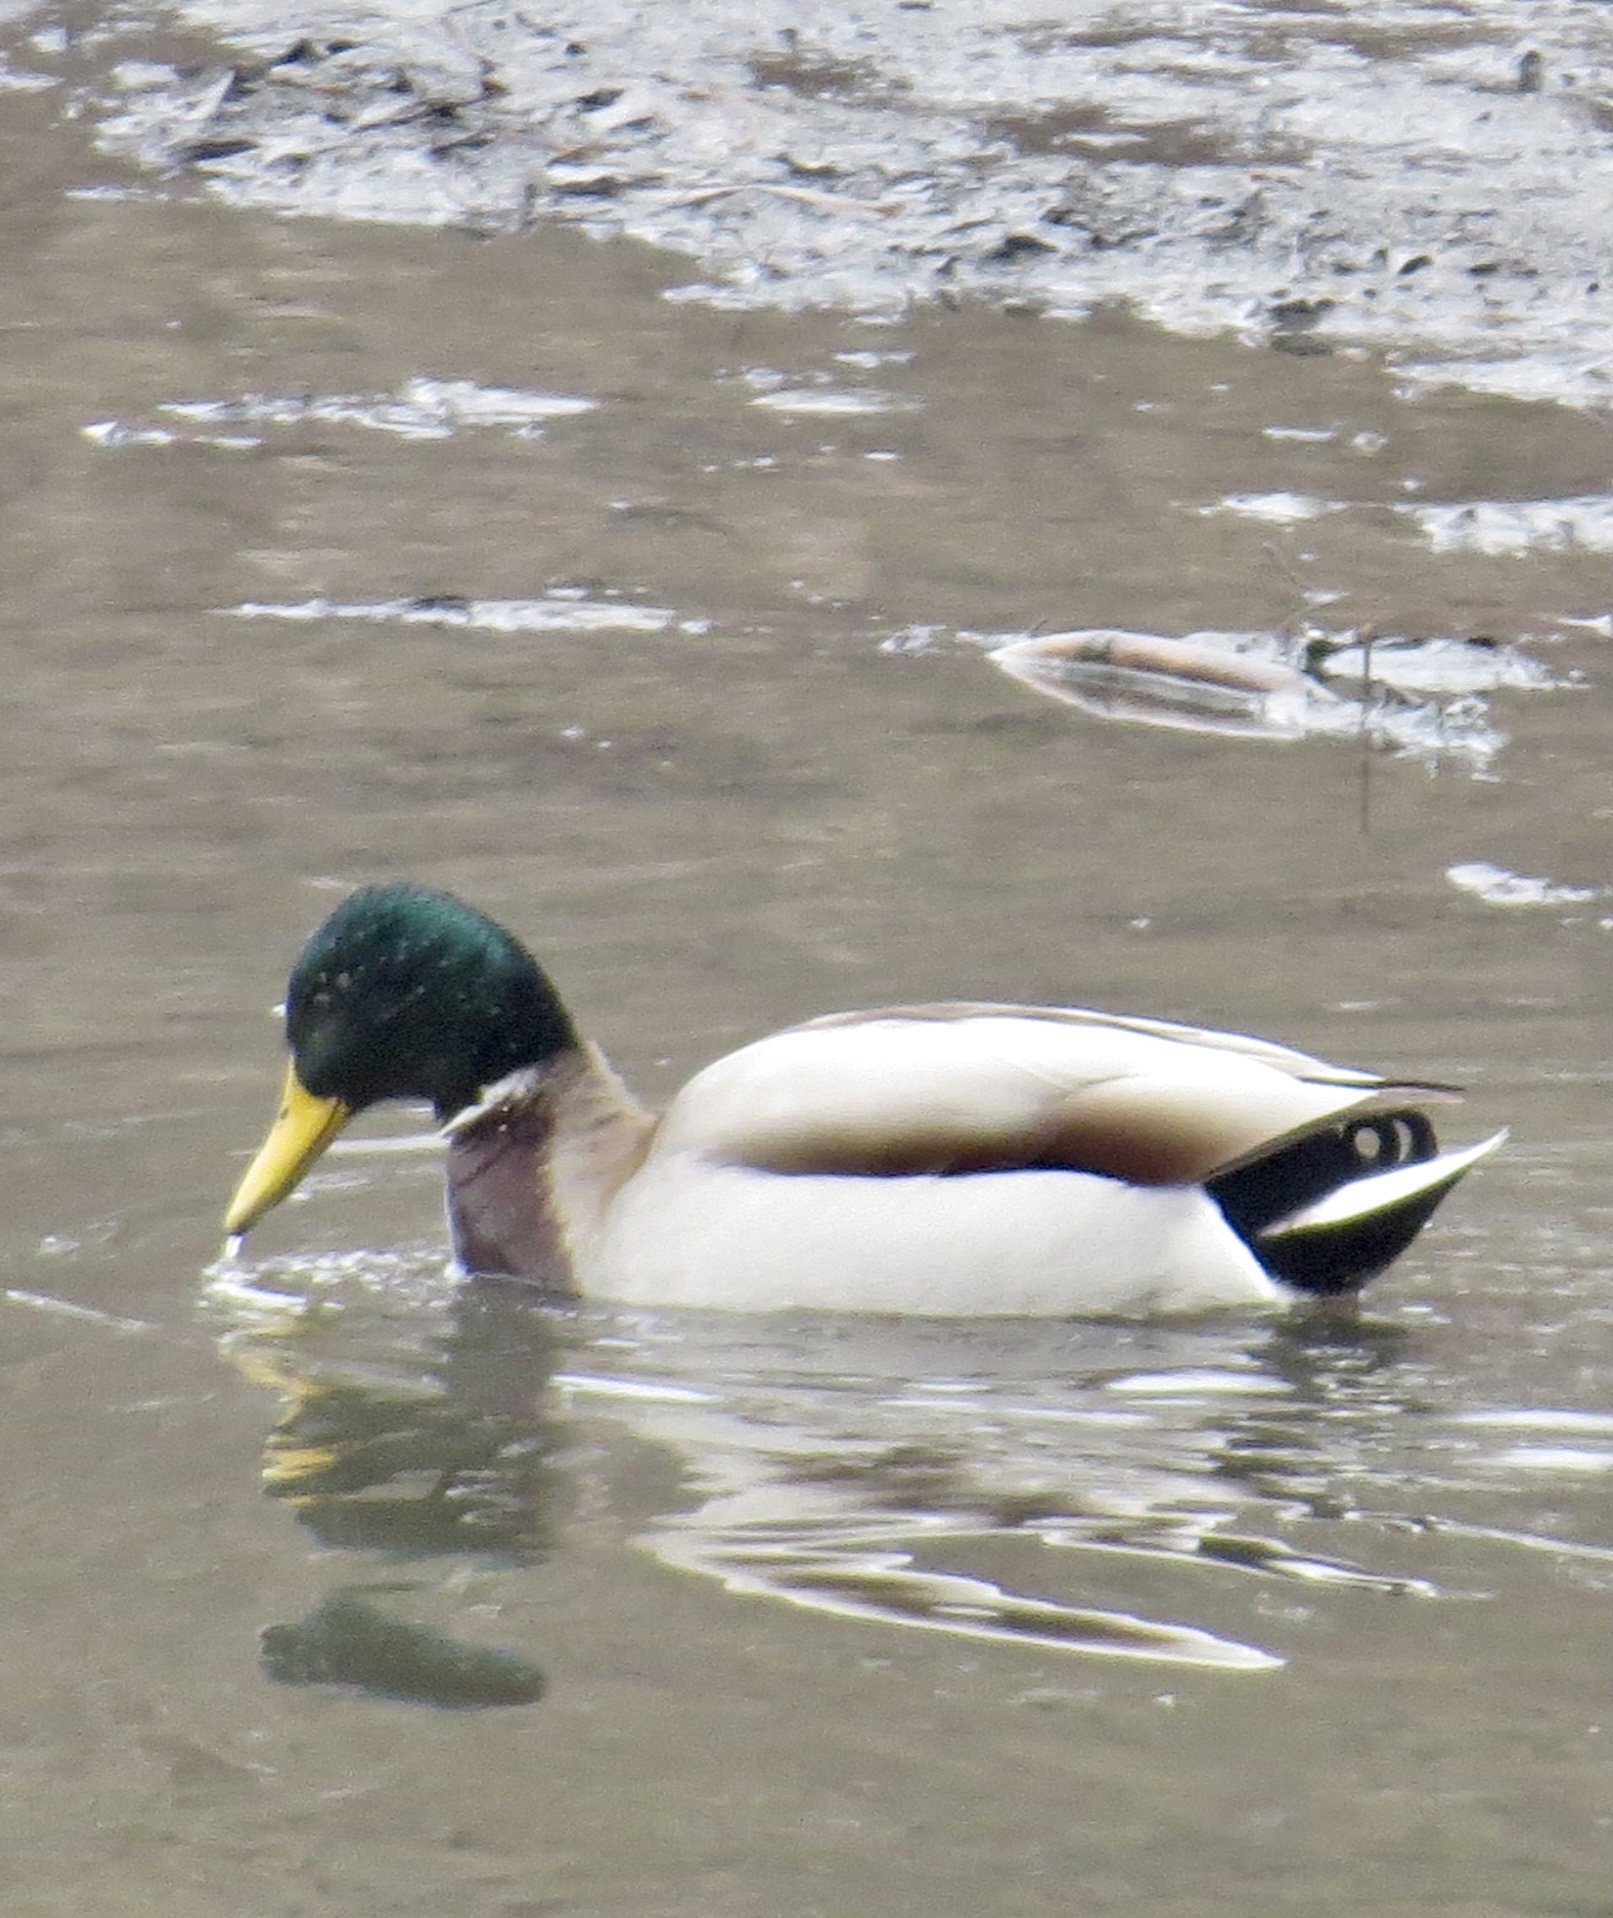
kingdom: Animalia
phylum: Chordata
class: Aves
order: Anseriformes
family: Anatidae
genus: Anas
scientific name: Anas platyrhynchos
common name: Mallard
